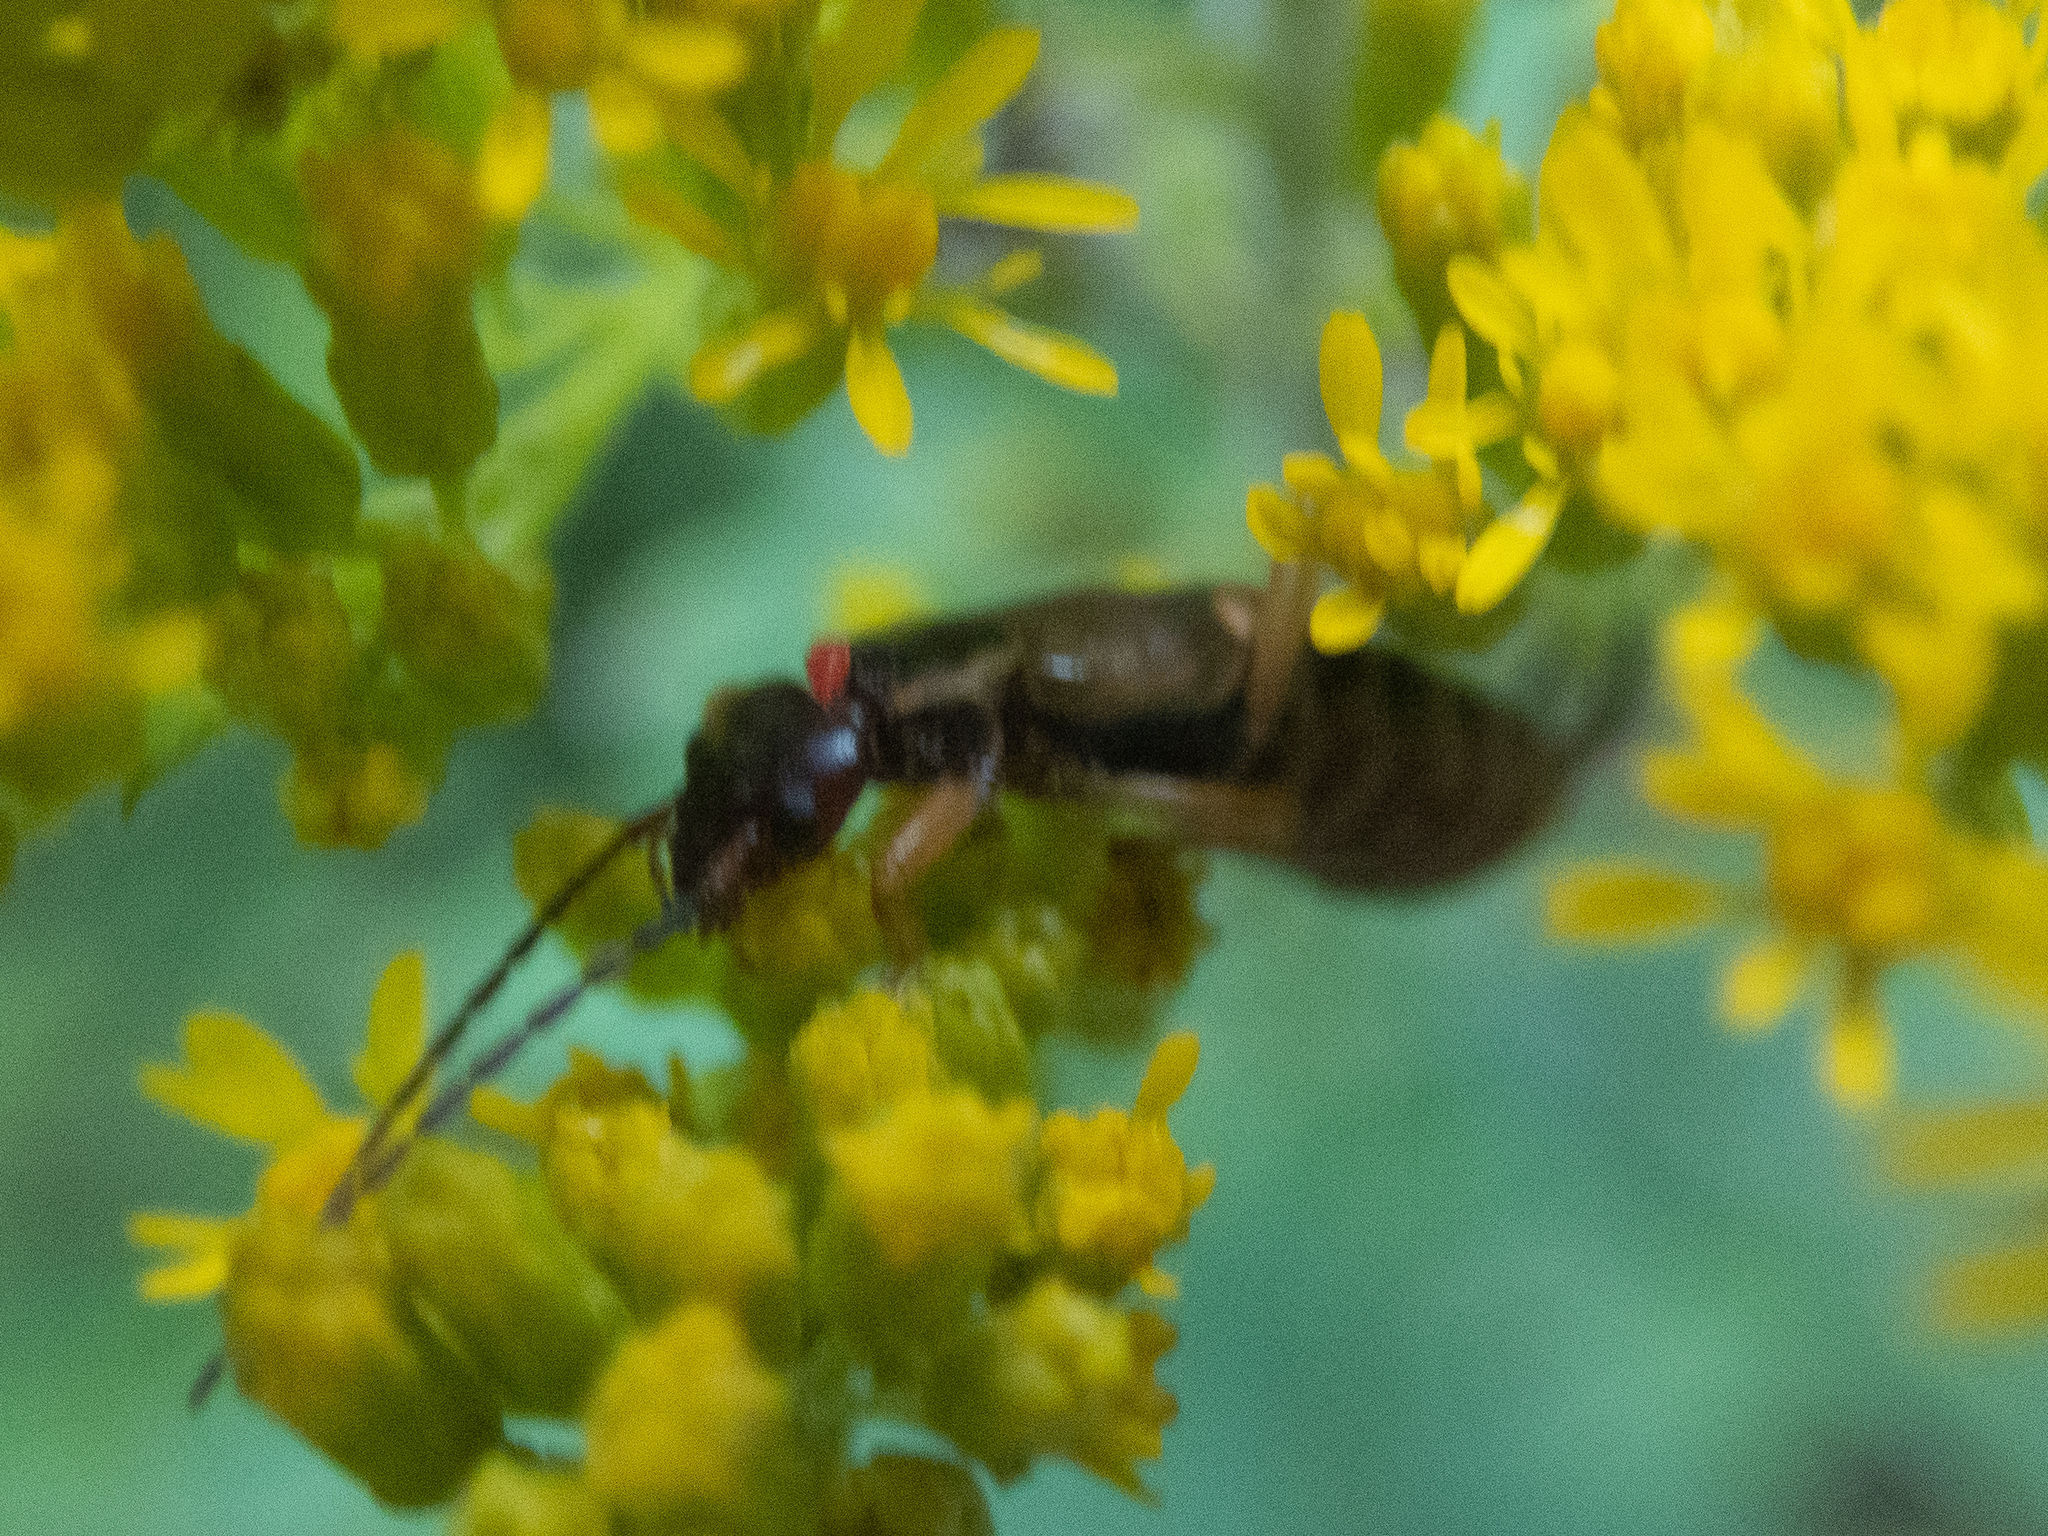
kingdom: Animalia
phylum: Arthropoda
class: Insecta
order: Dermaptera
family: Forficulidae
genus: Forficula
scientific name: Forficula
